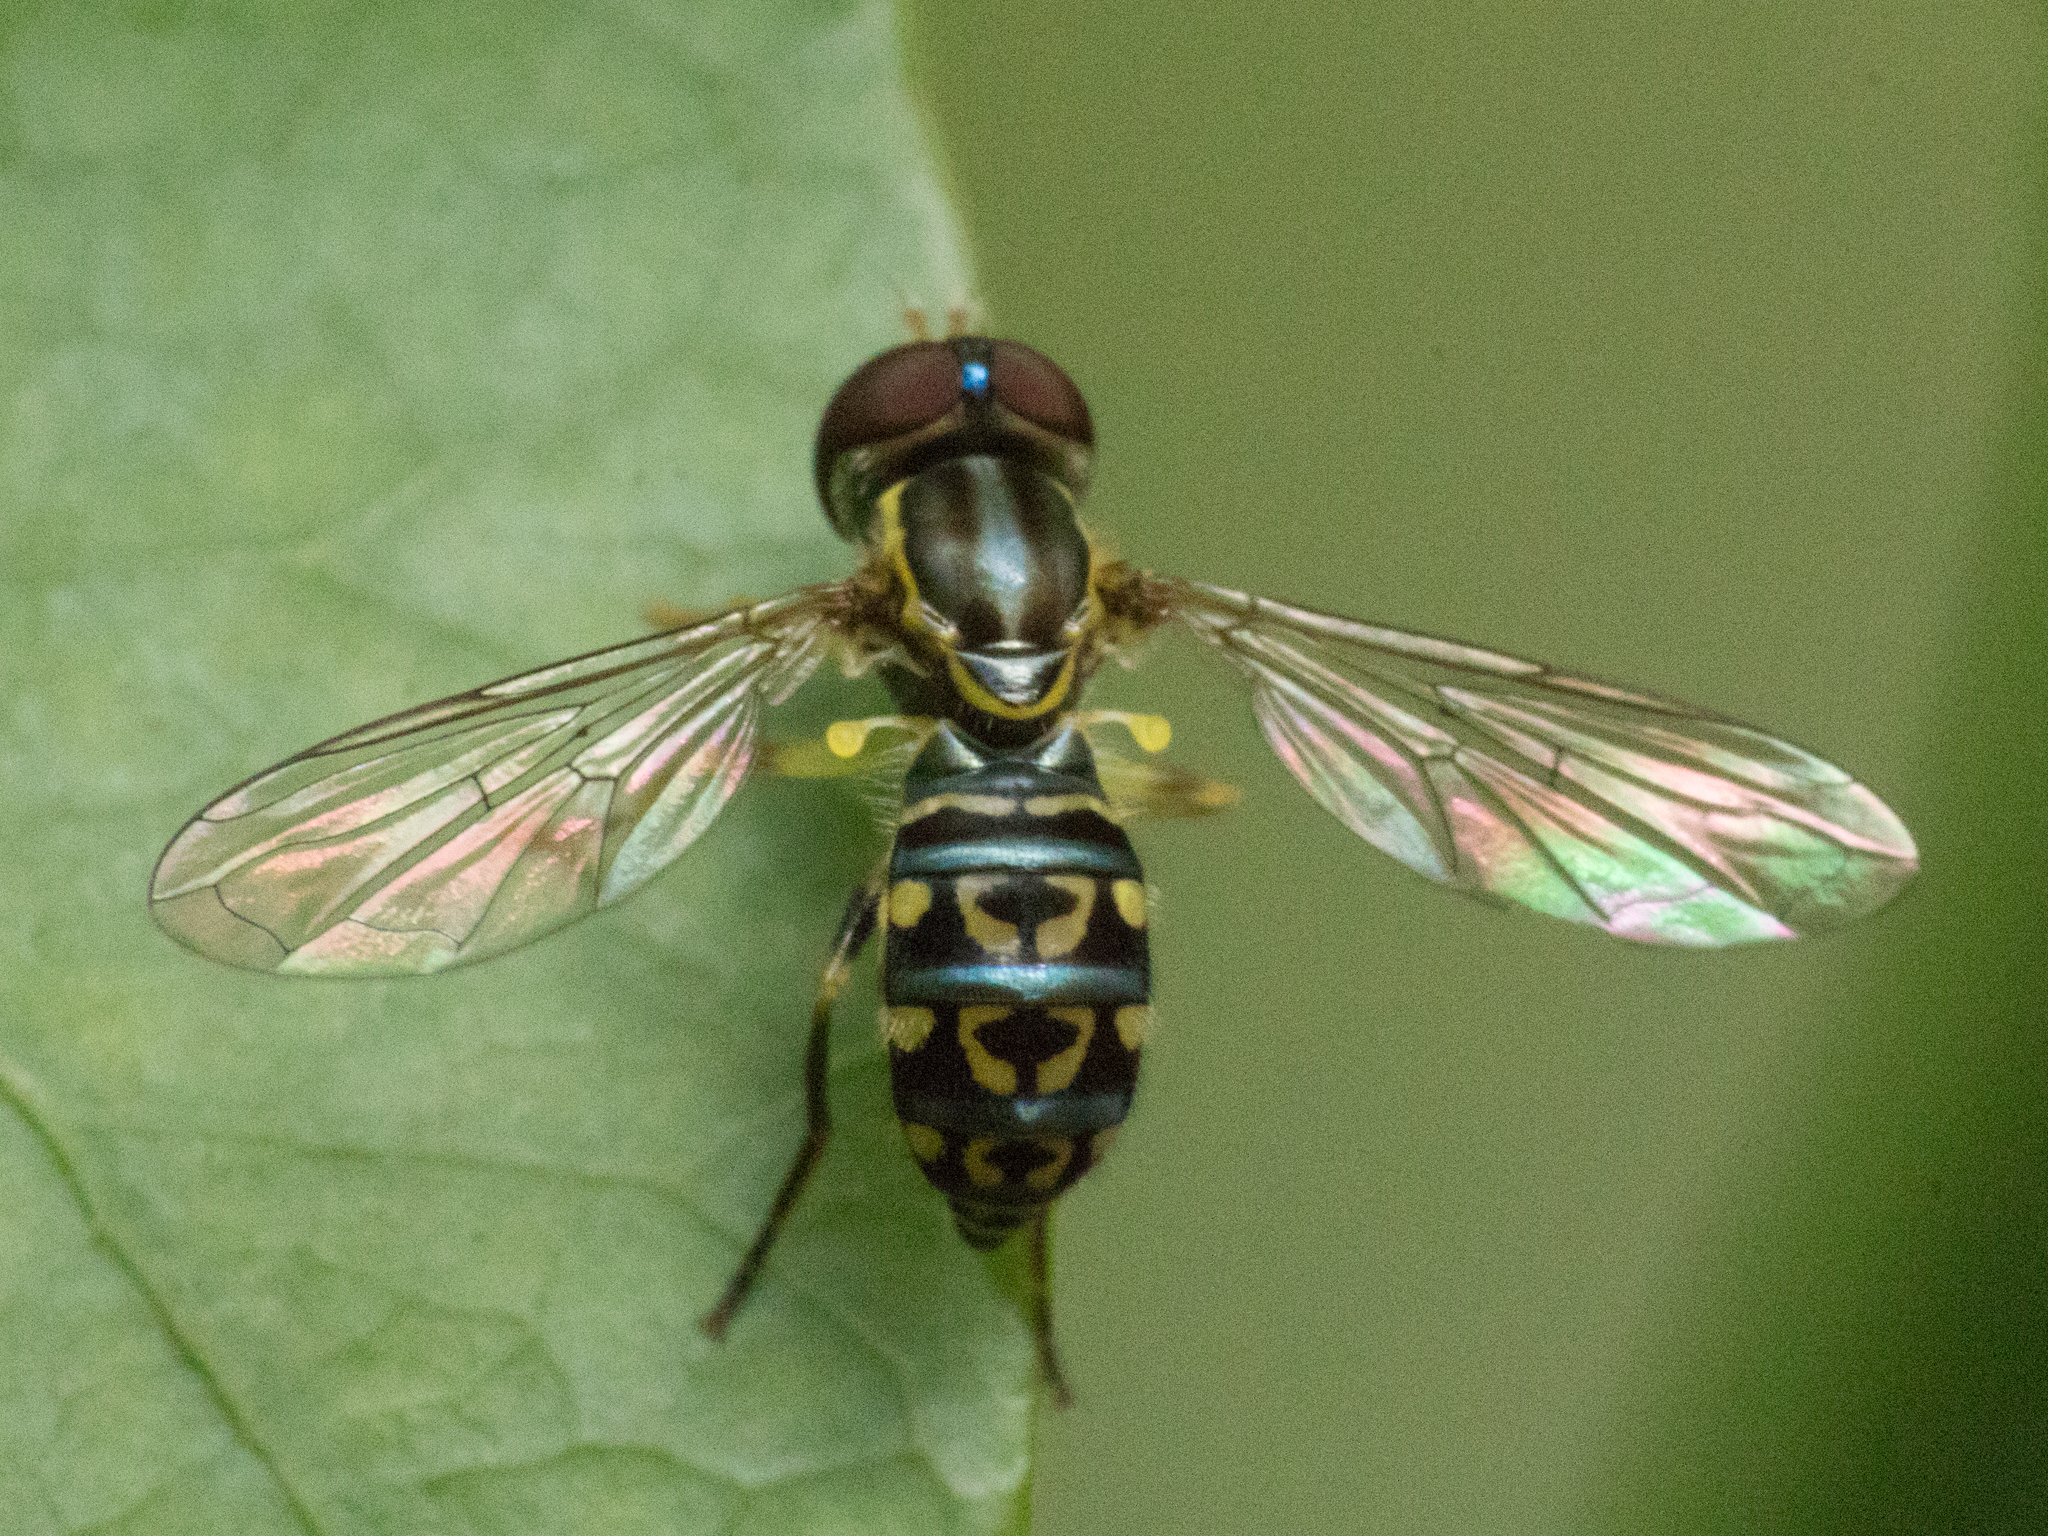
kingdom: Animalia
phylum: Arthropoda
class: Insecta
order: Diptera
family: Syrphidae
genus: Toxomerus
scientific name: Toxomerus virgulatus
